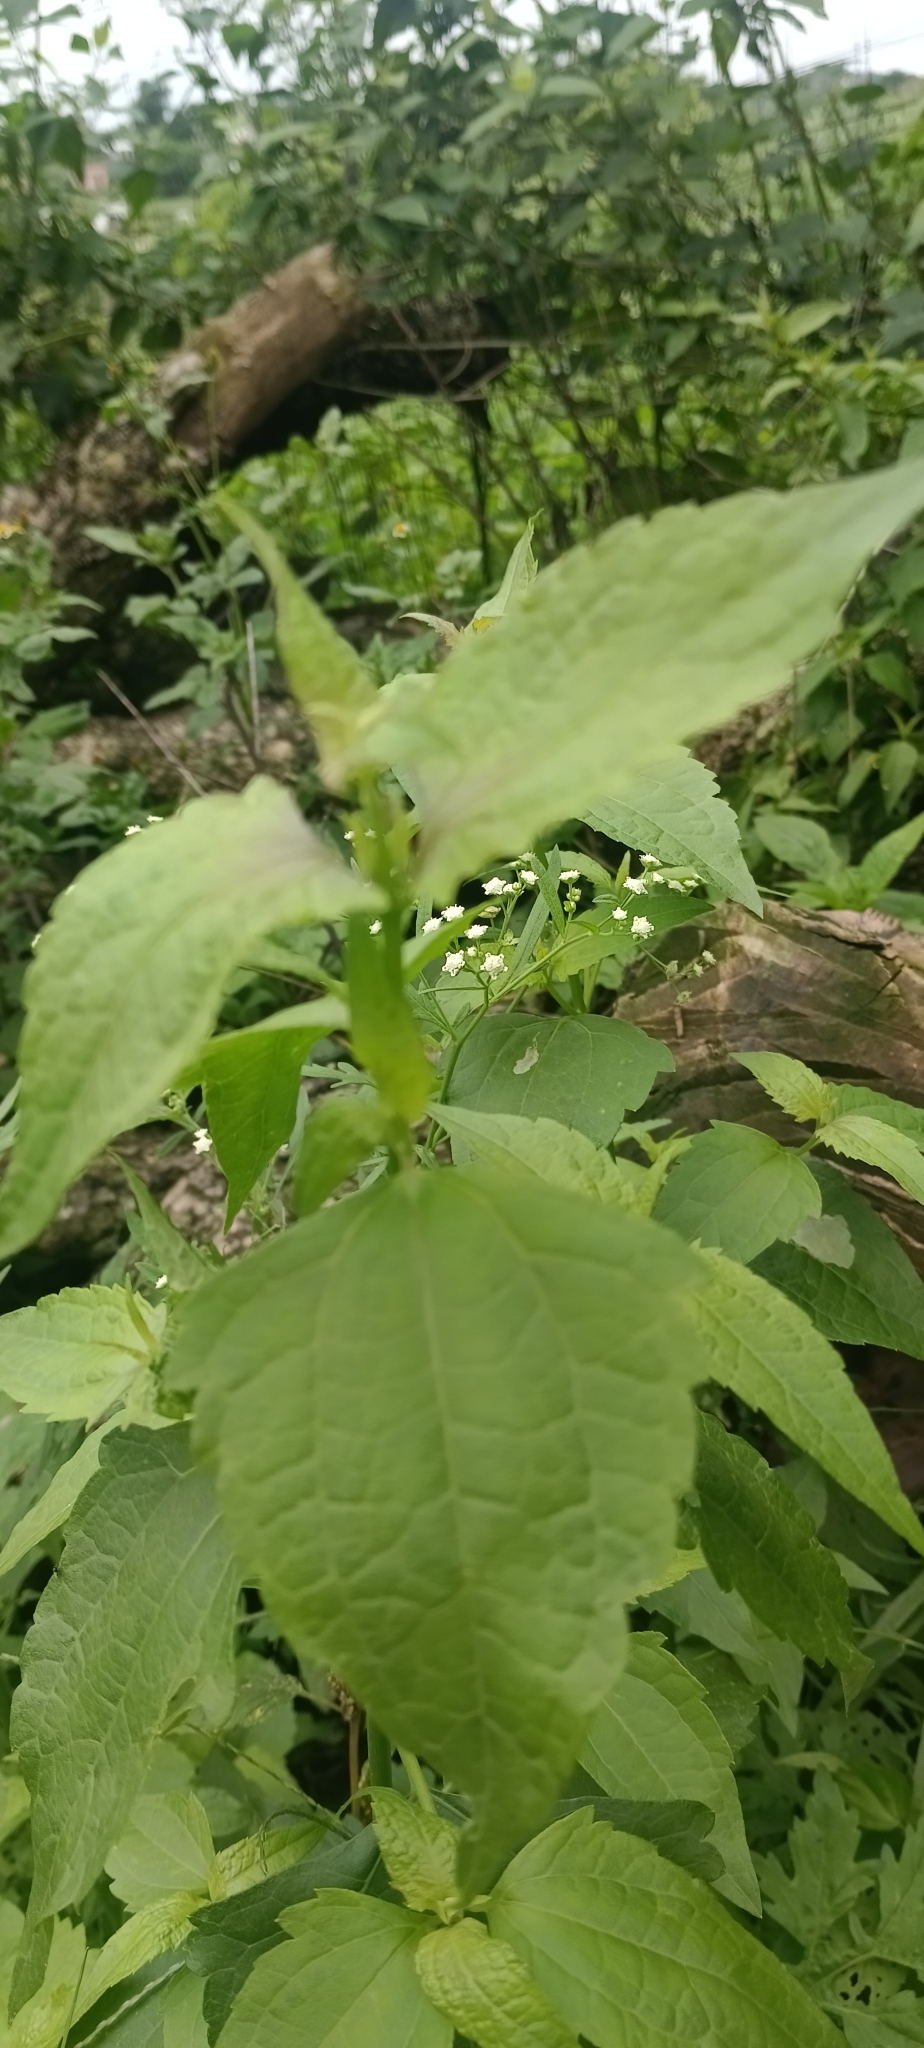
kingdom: Plantae
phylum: Tracheophyta
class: Magnoliopsida
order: Asterales
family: Asteraceae
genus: Chromolaena
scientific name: Chromolaena odorata
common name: Siamweed
